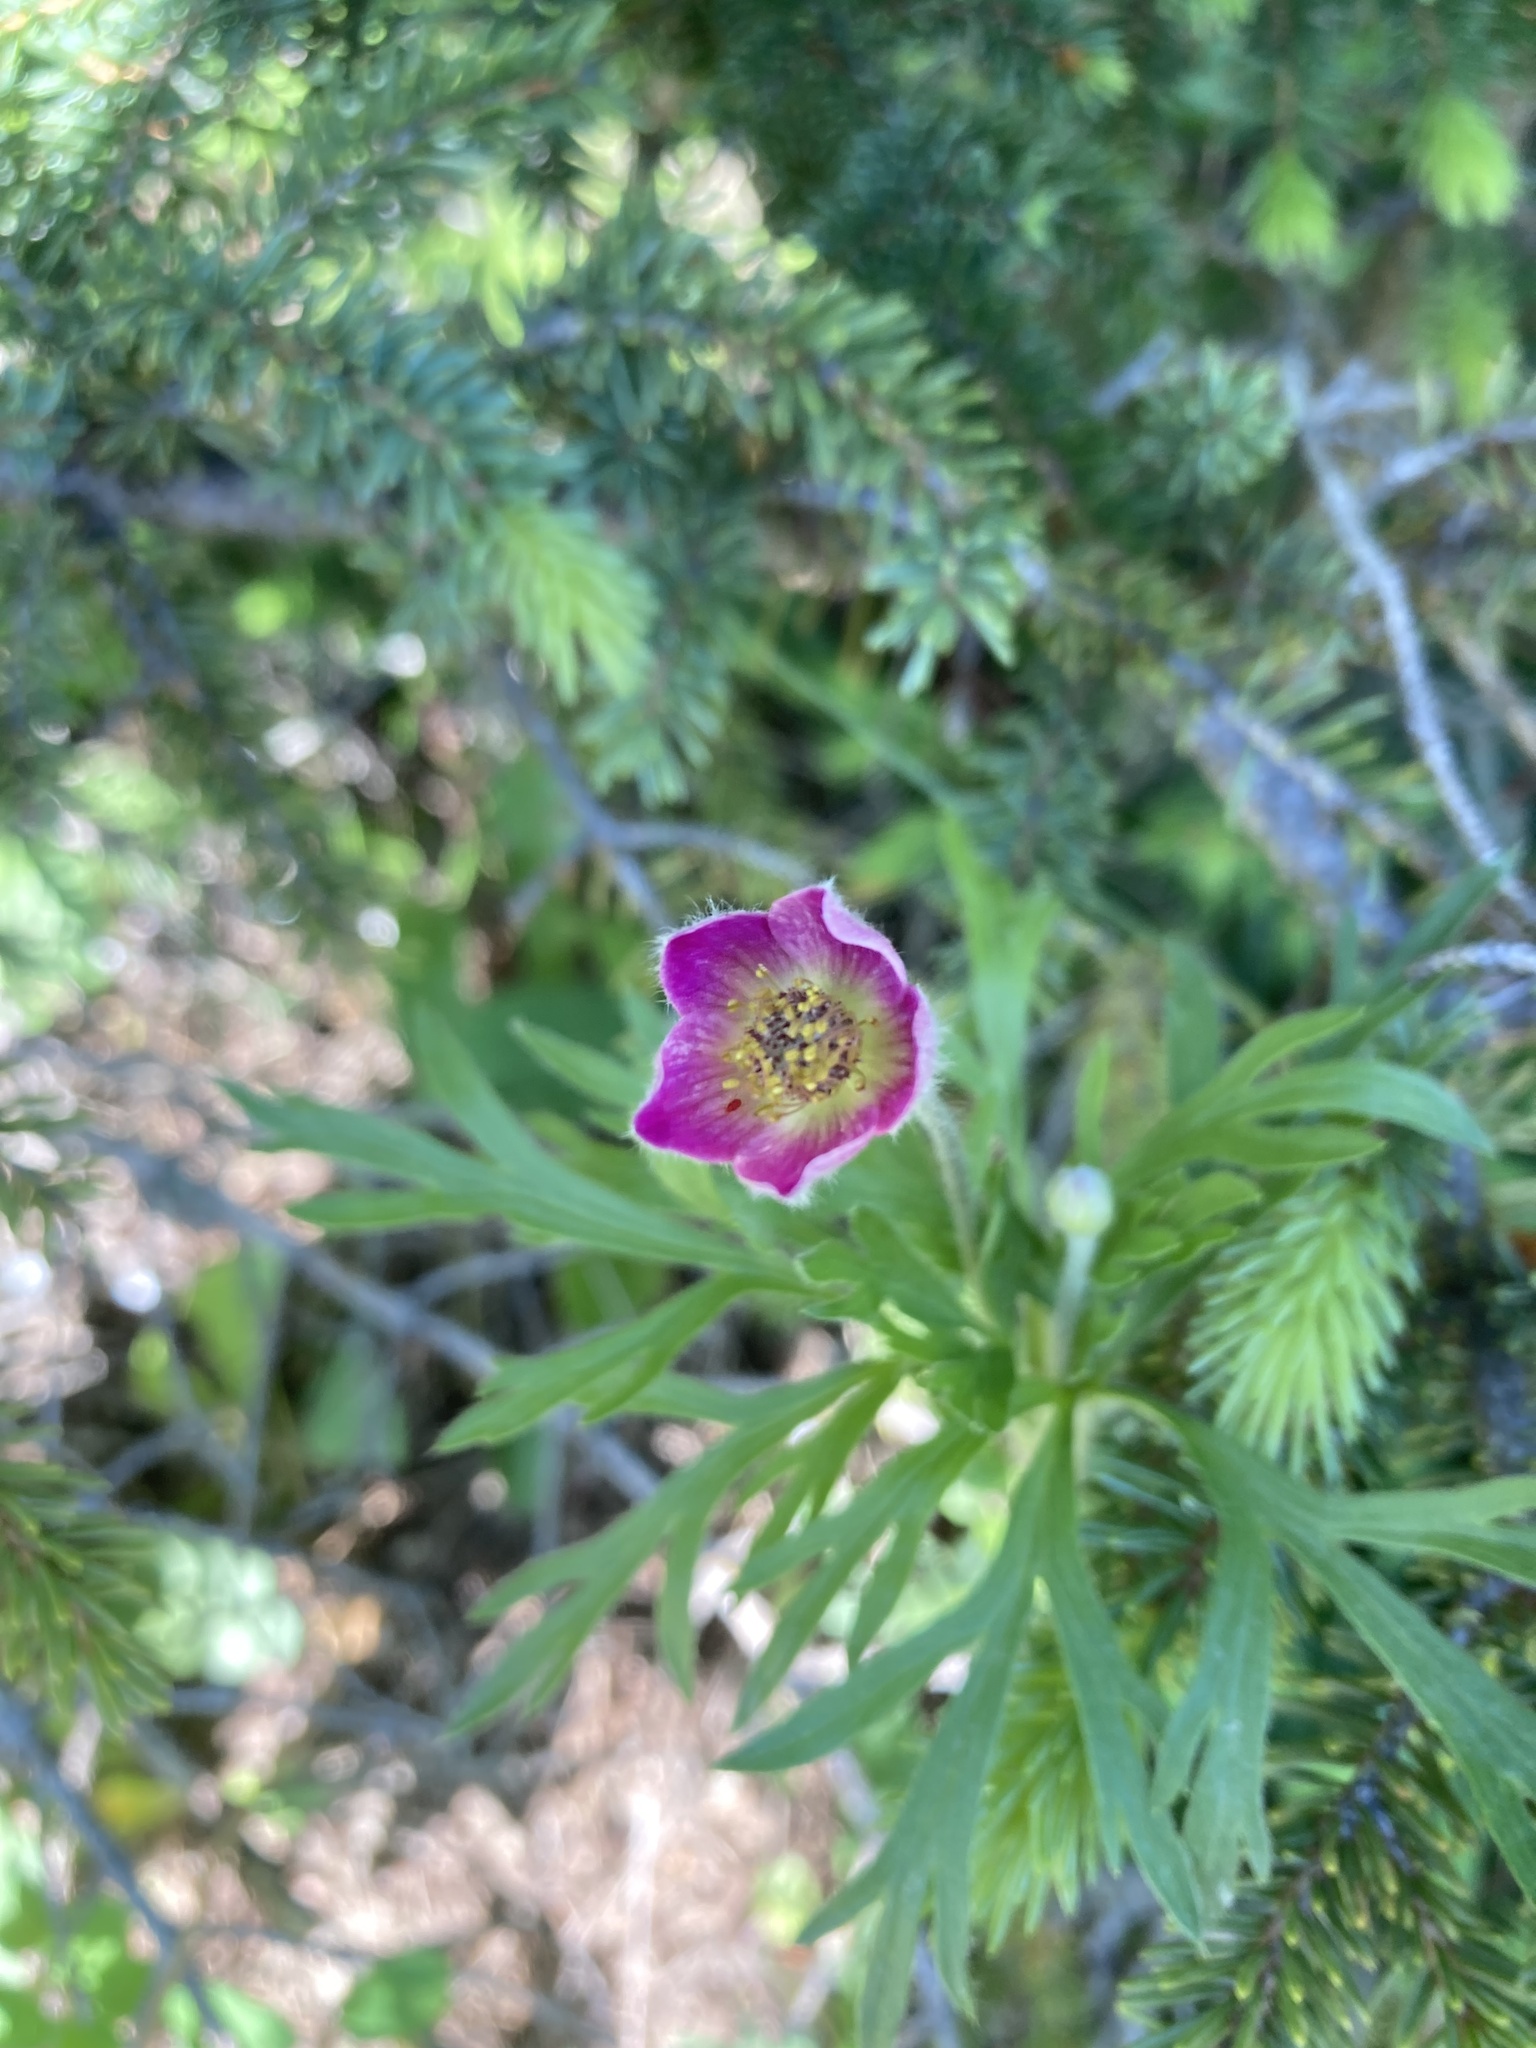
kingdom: Plantae
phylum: Tracheophyta
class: Magnoliopsida
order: Ranunculales
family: Ranunculaceae
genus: Anemone
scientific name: Anemone multifida
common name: Bird's-foot anemone
